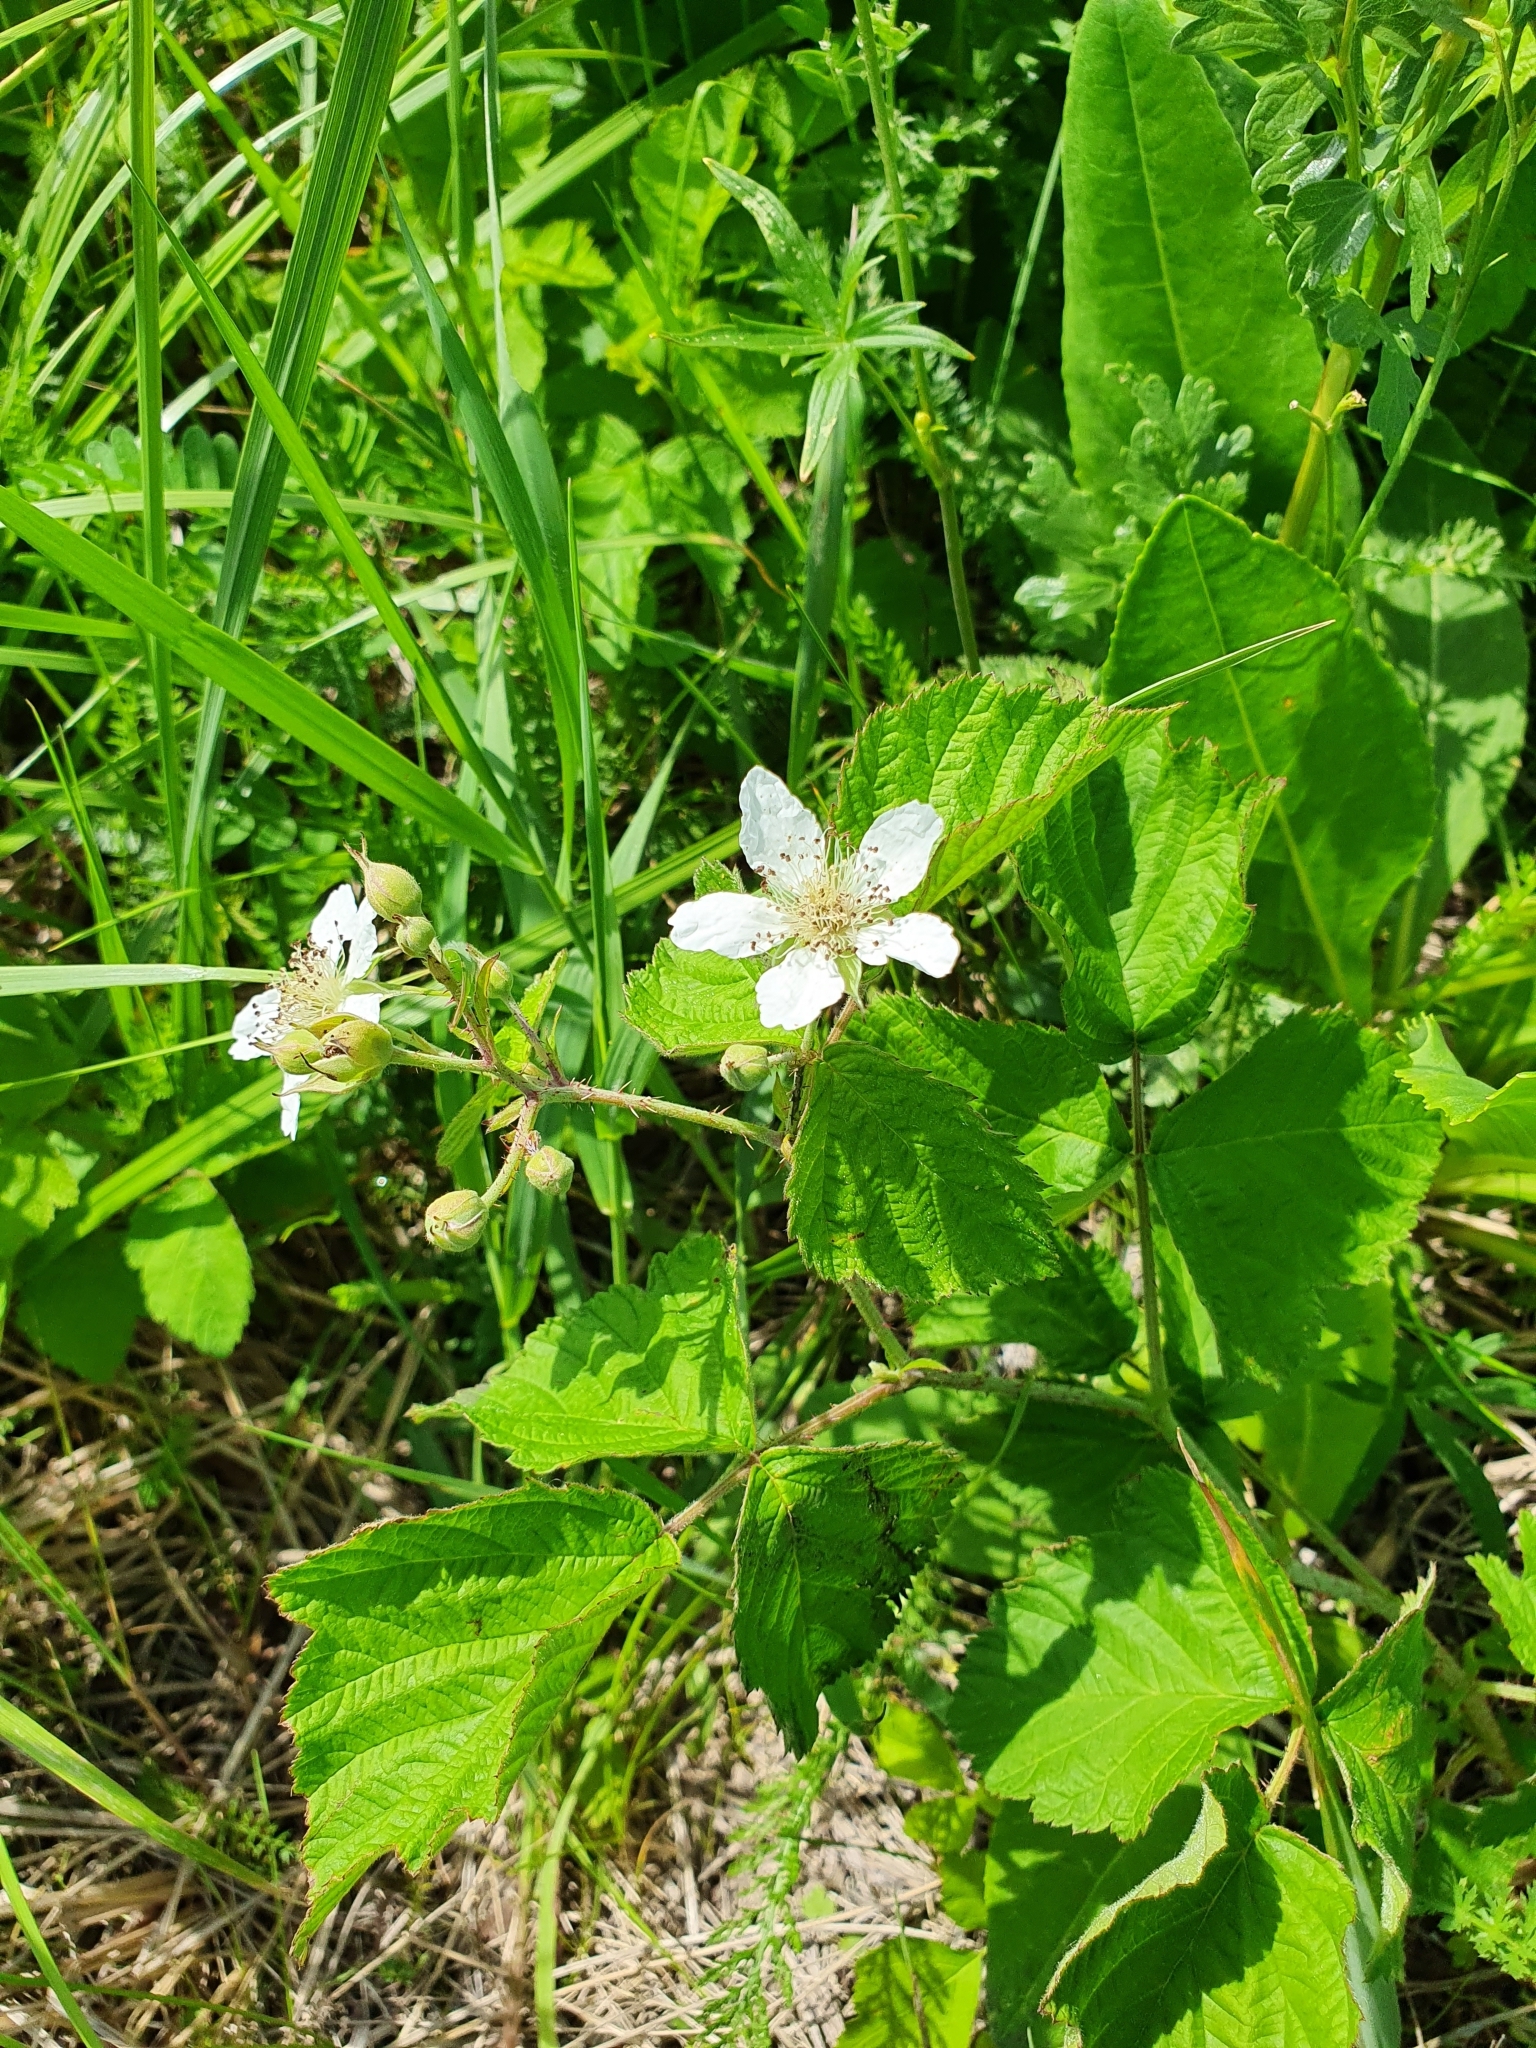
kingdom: Plantae
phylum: Tracheophyta
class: Magnoliopsida
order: Rosales
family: Rosaceae
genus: Rubus
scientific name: Rubus caesius
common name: Dewberry
